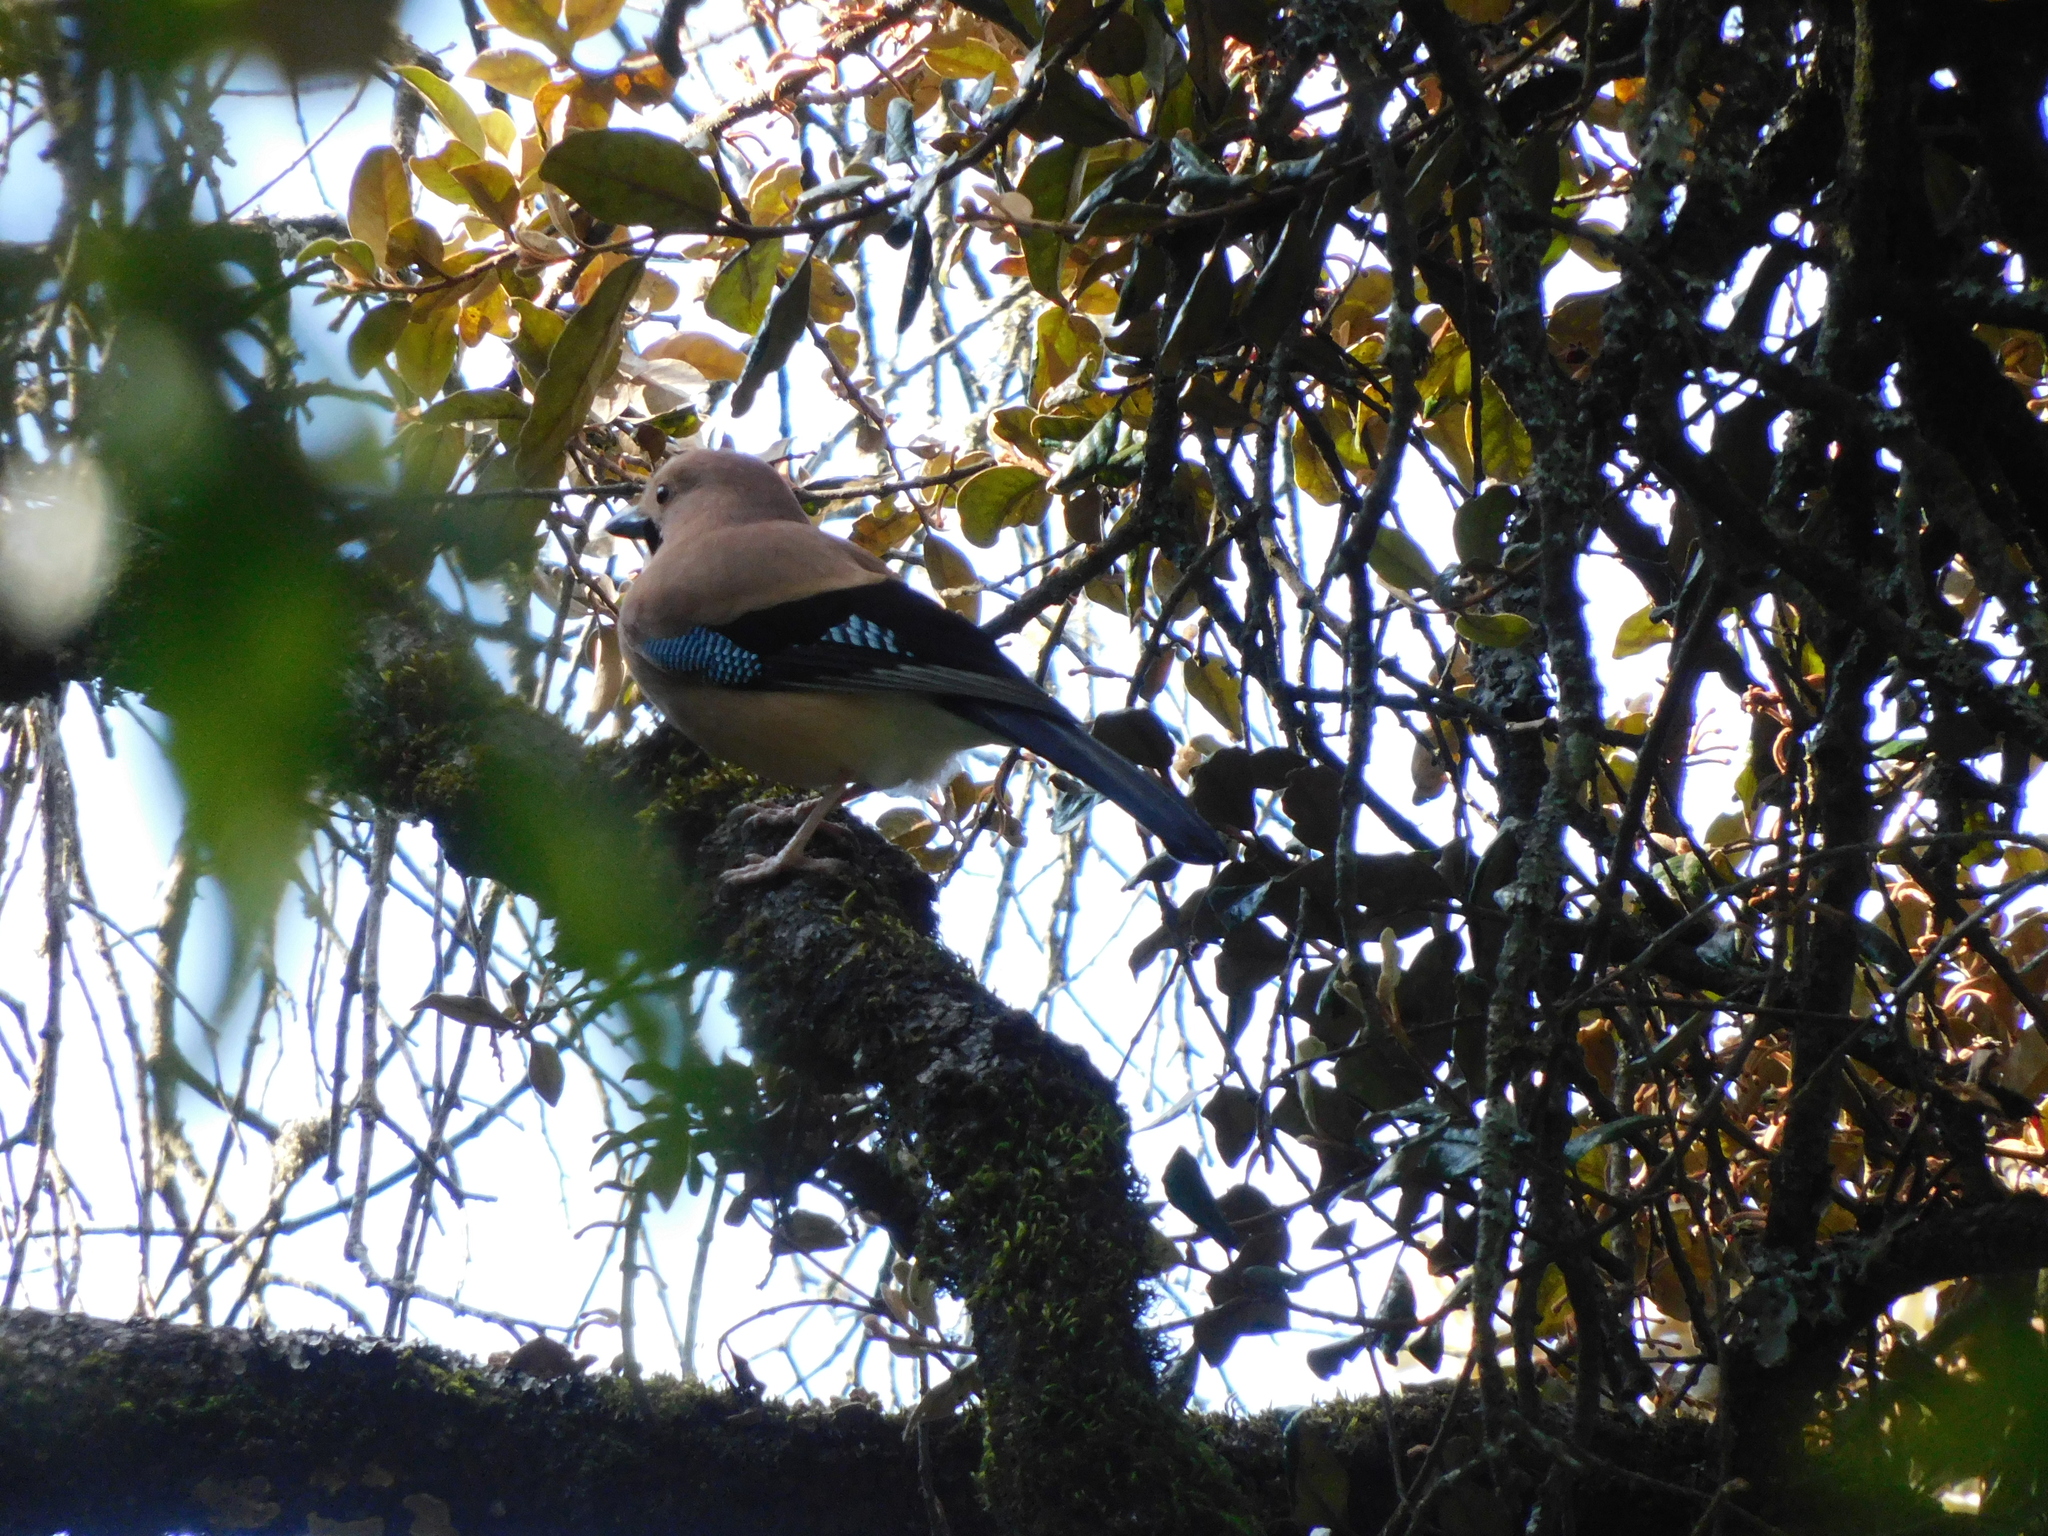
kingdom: Animalia
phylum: Chordata
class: Aves
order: Passeriformes
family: Corvidae
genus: Garrulus
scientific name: Garrulus glandarius
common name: Eurasian jay
